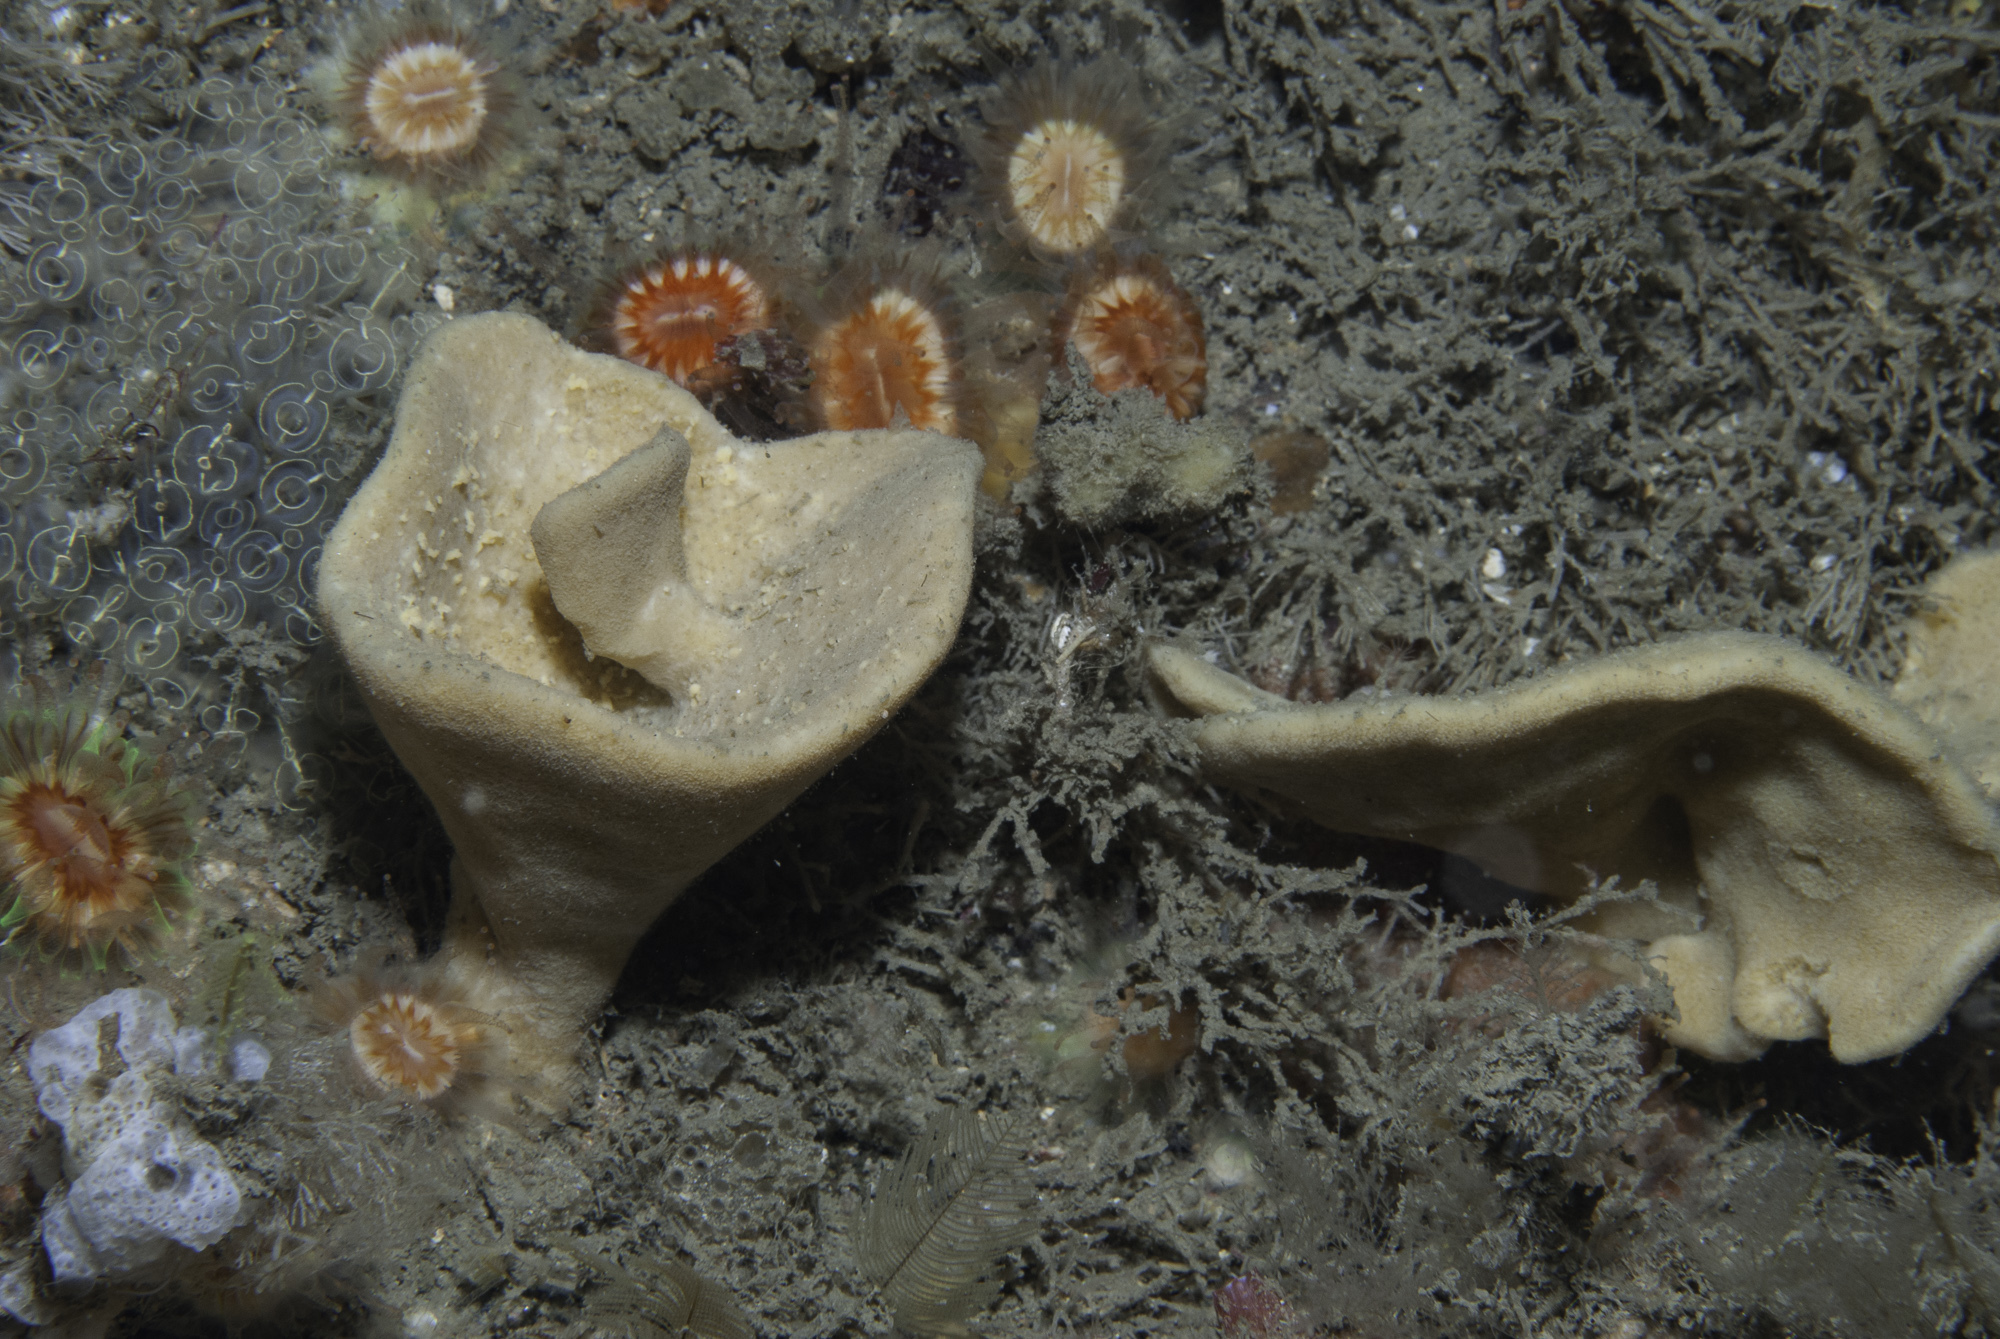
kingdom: Animalia
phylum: Porifera
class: Demospongiae
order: Axinellida
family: Axinellidae
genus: Axinella
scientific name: Axinella infundibuliformis
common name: North atlantic cup sponge
